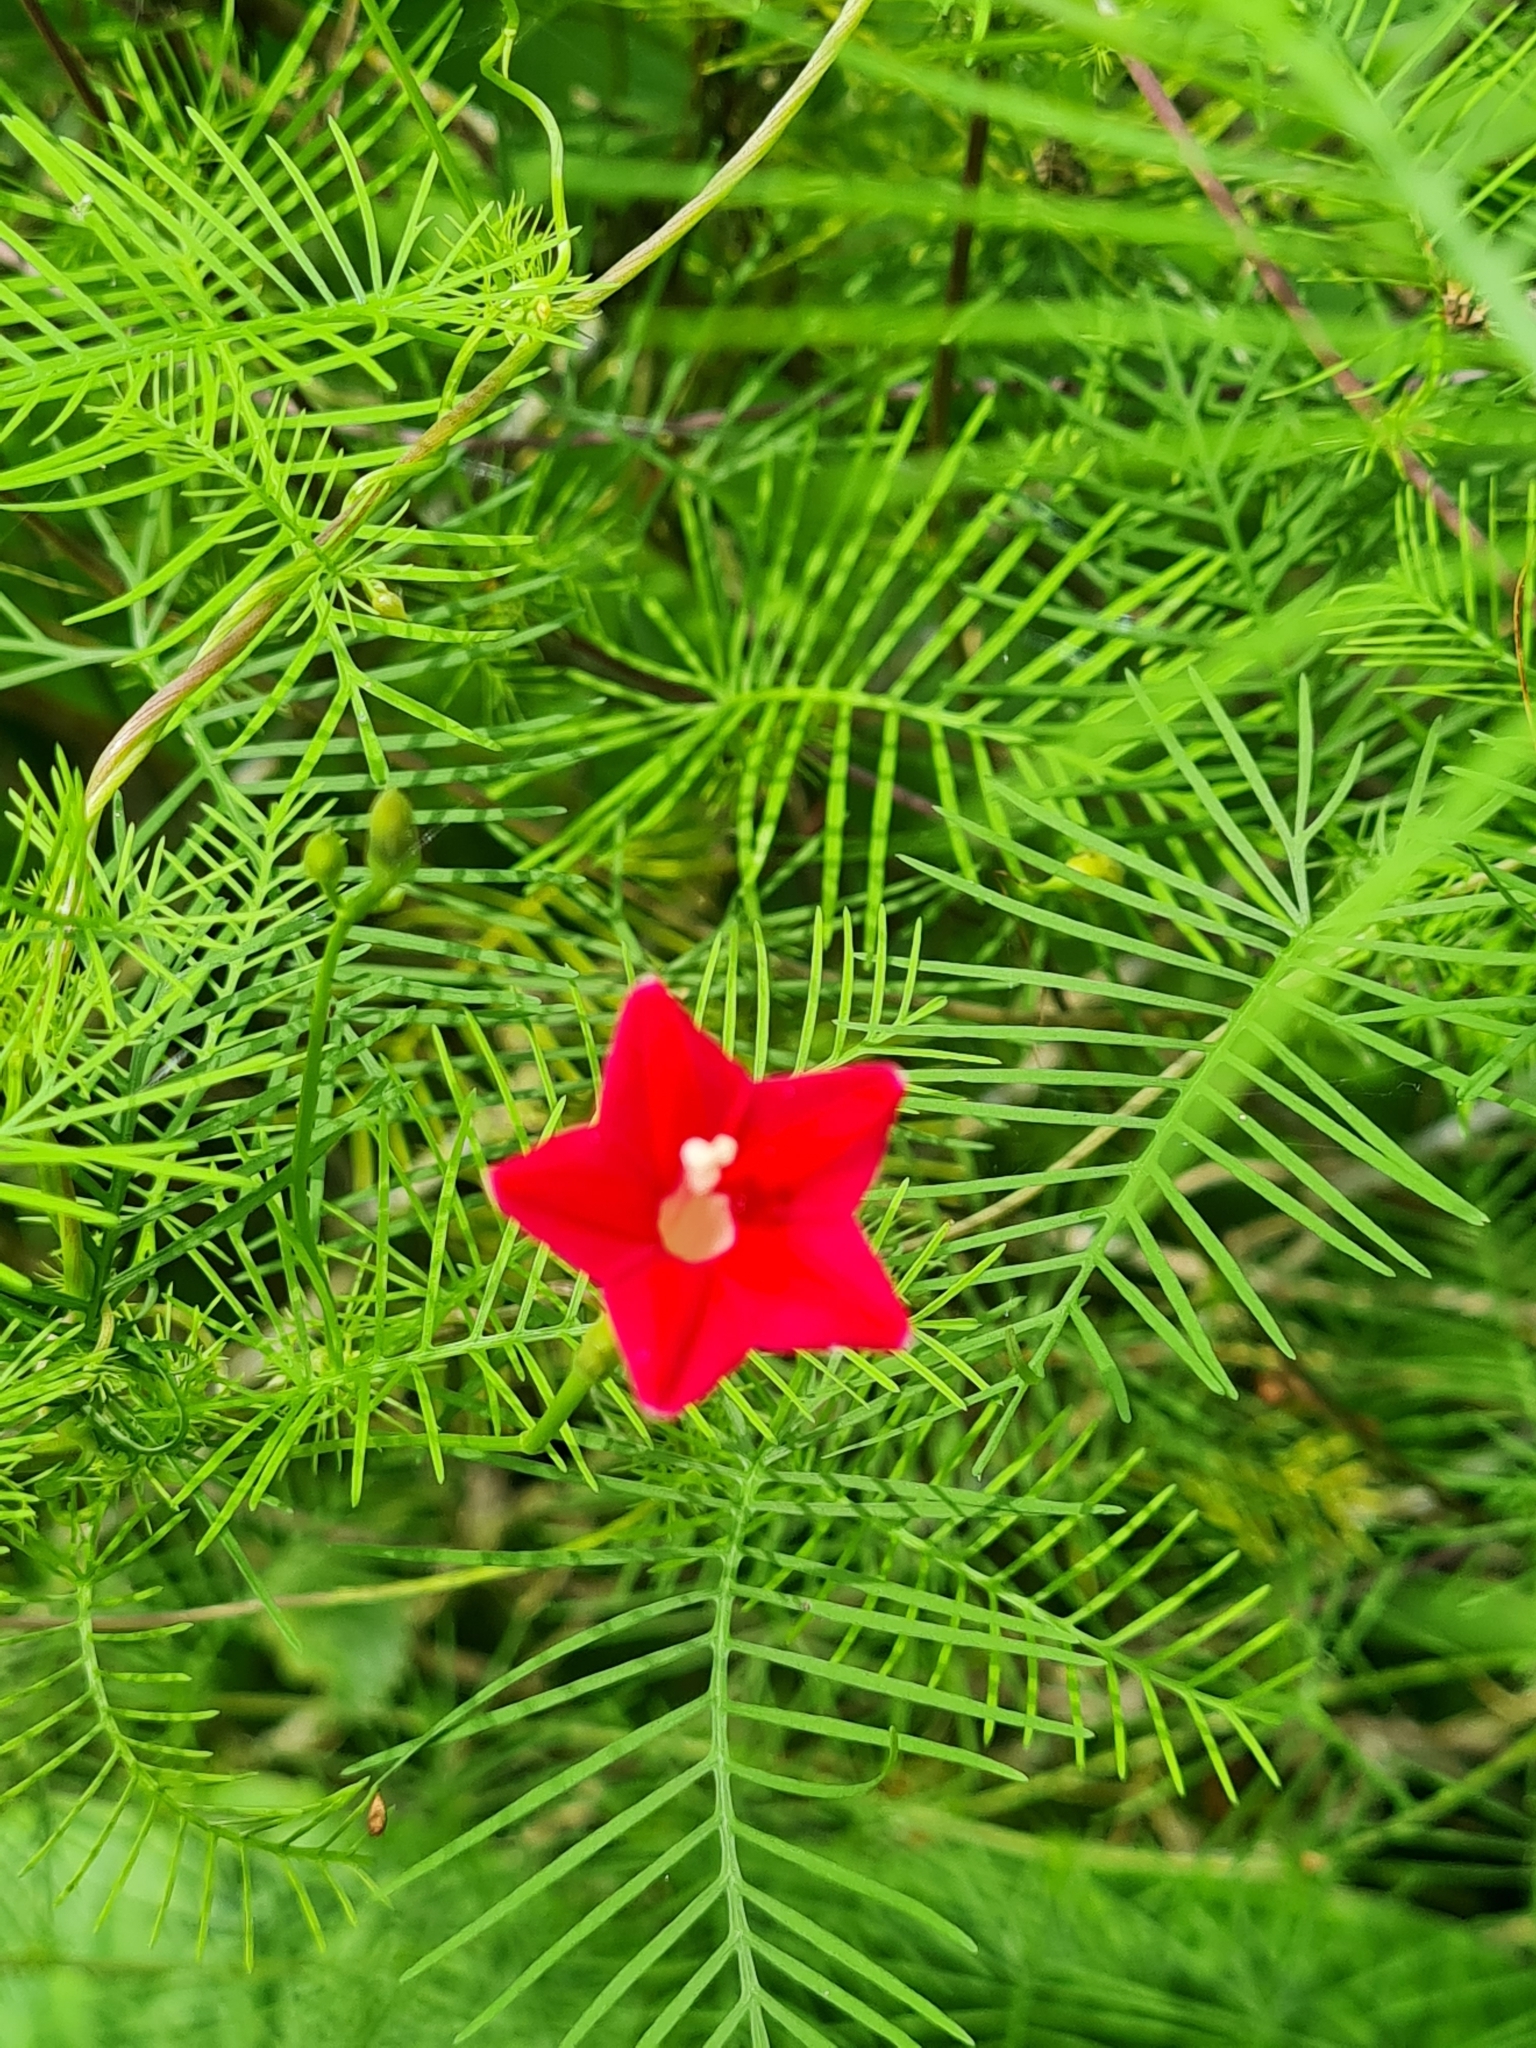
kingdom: Plantae
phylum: Tracheophyta
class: Magnoliopsida
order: Solanales
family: Convolvulaceae
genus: Ipomoea
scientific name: Ipomoea quamoclit
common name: Cypress vine
